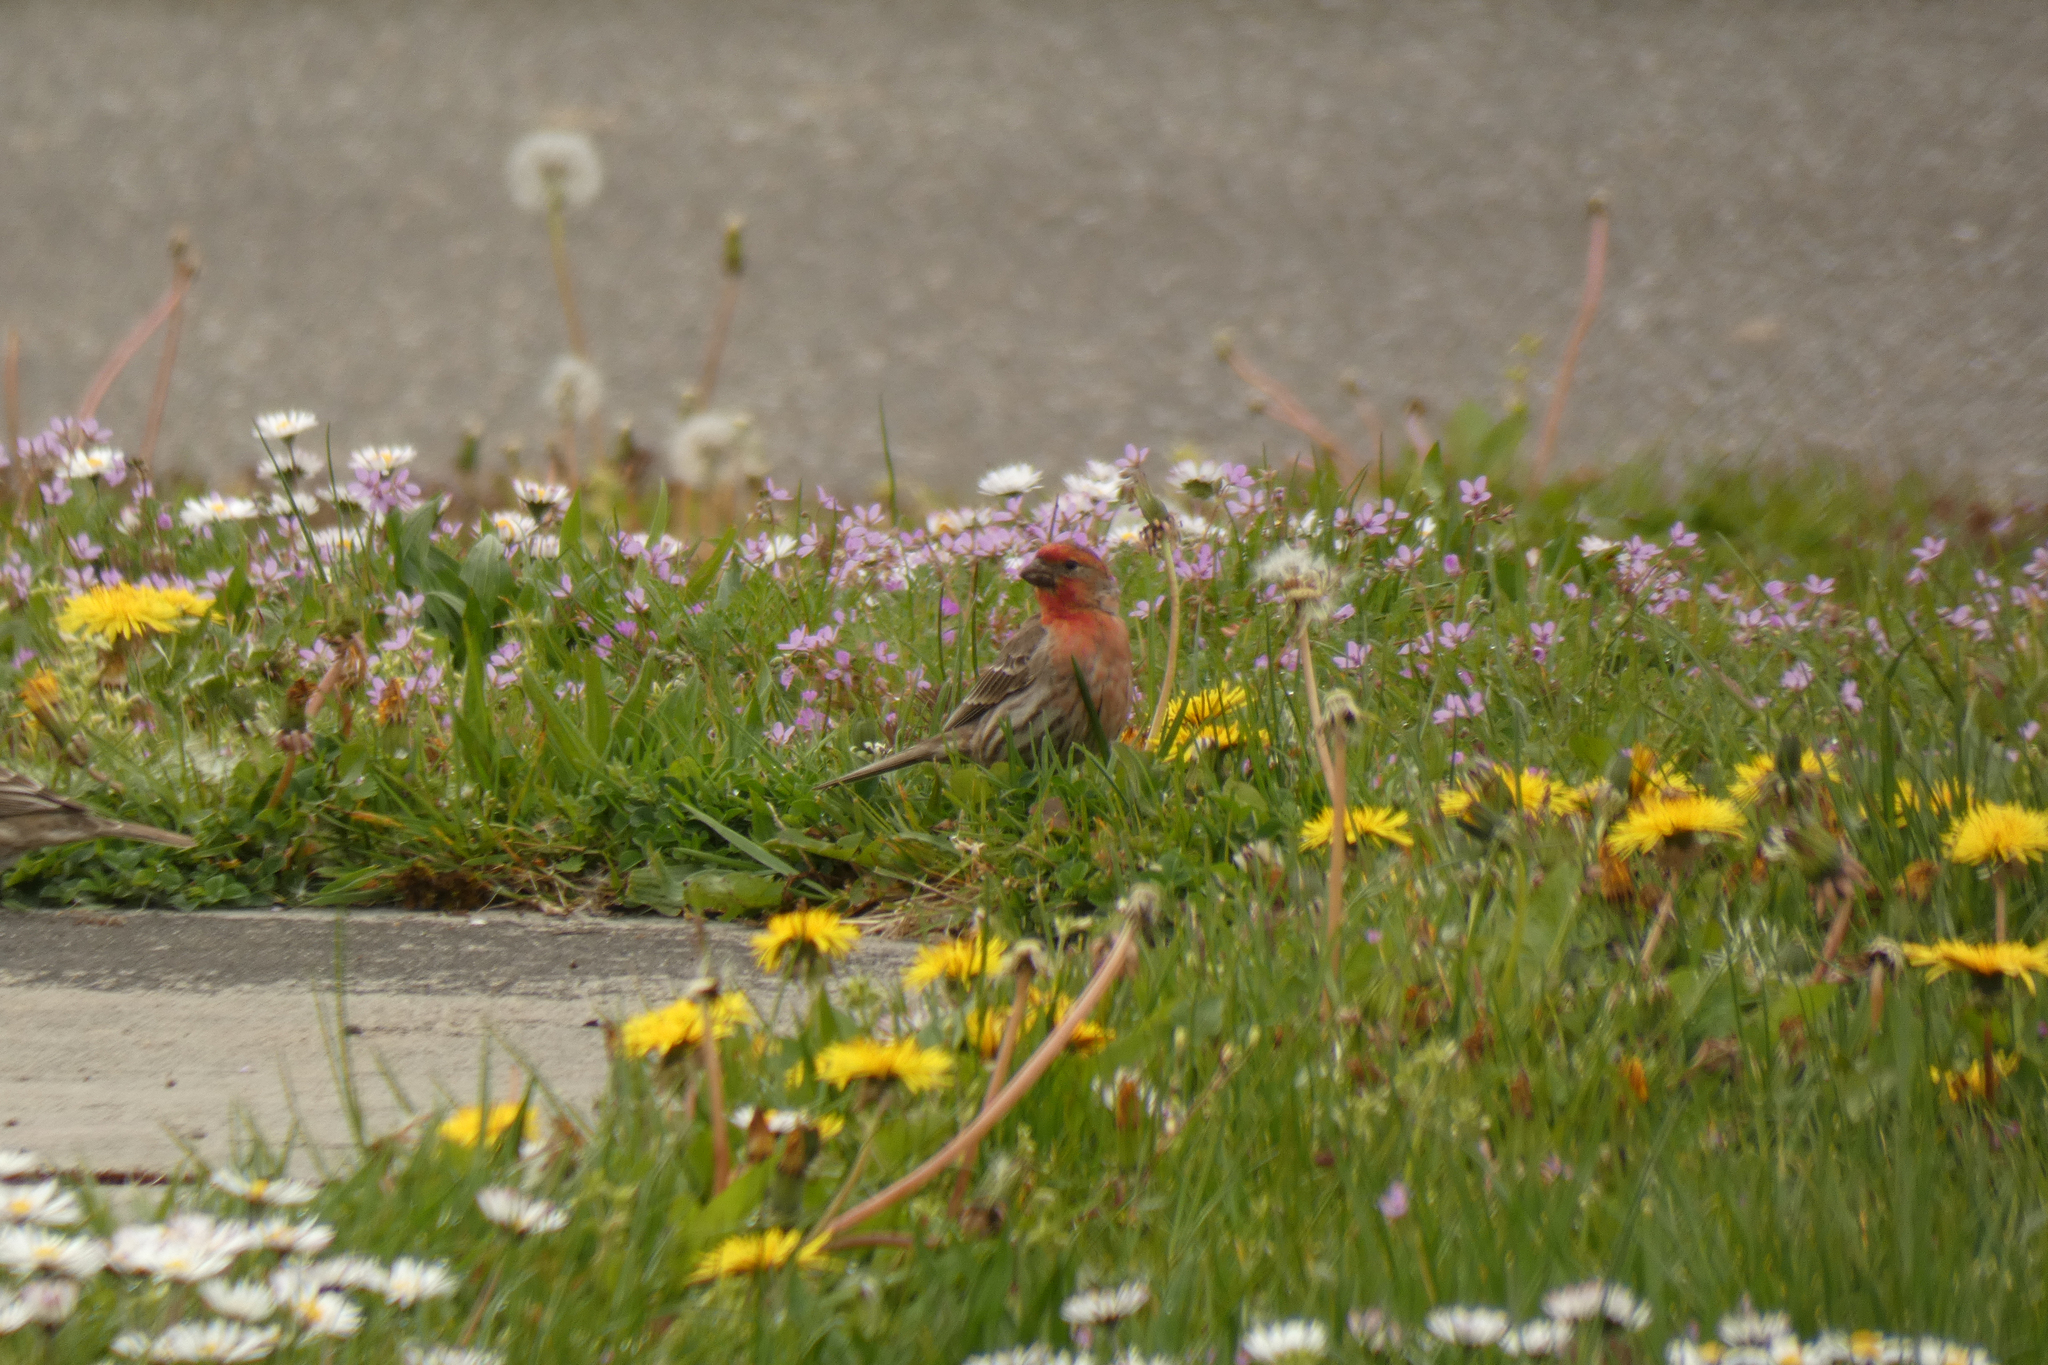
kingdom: Animalia
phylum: Chordata
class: Aves
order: Passeriformes
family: Fringillidae
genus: Haemorhous
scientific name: Haemorhous mexicanus
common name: House finch
